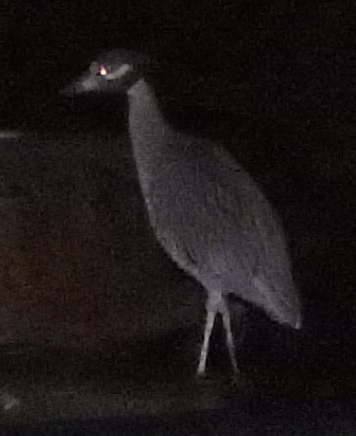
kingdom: Animalia
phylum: Chordata
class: Aves
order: Pelecaniformes
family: Ardeidae
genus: Nyctanassa
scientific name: Nyctanassa violacea
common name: Yellow-crowned night heron
